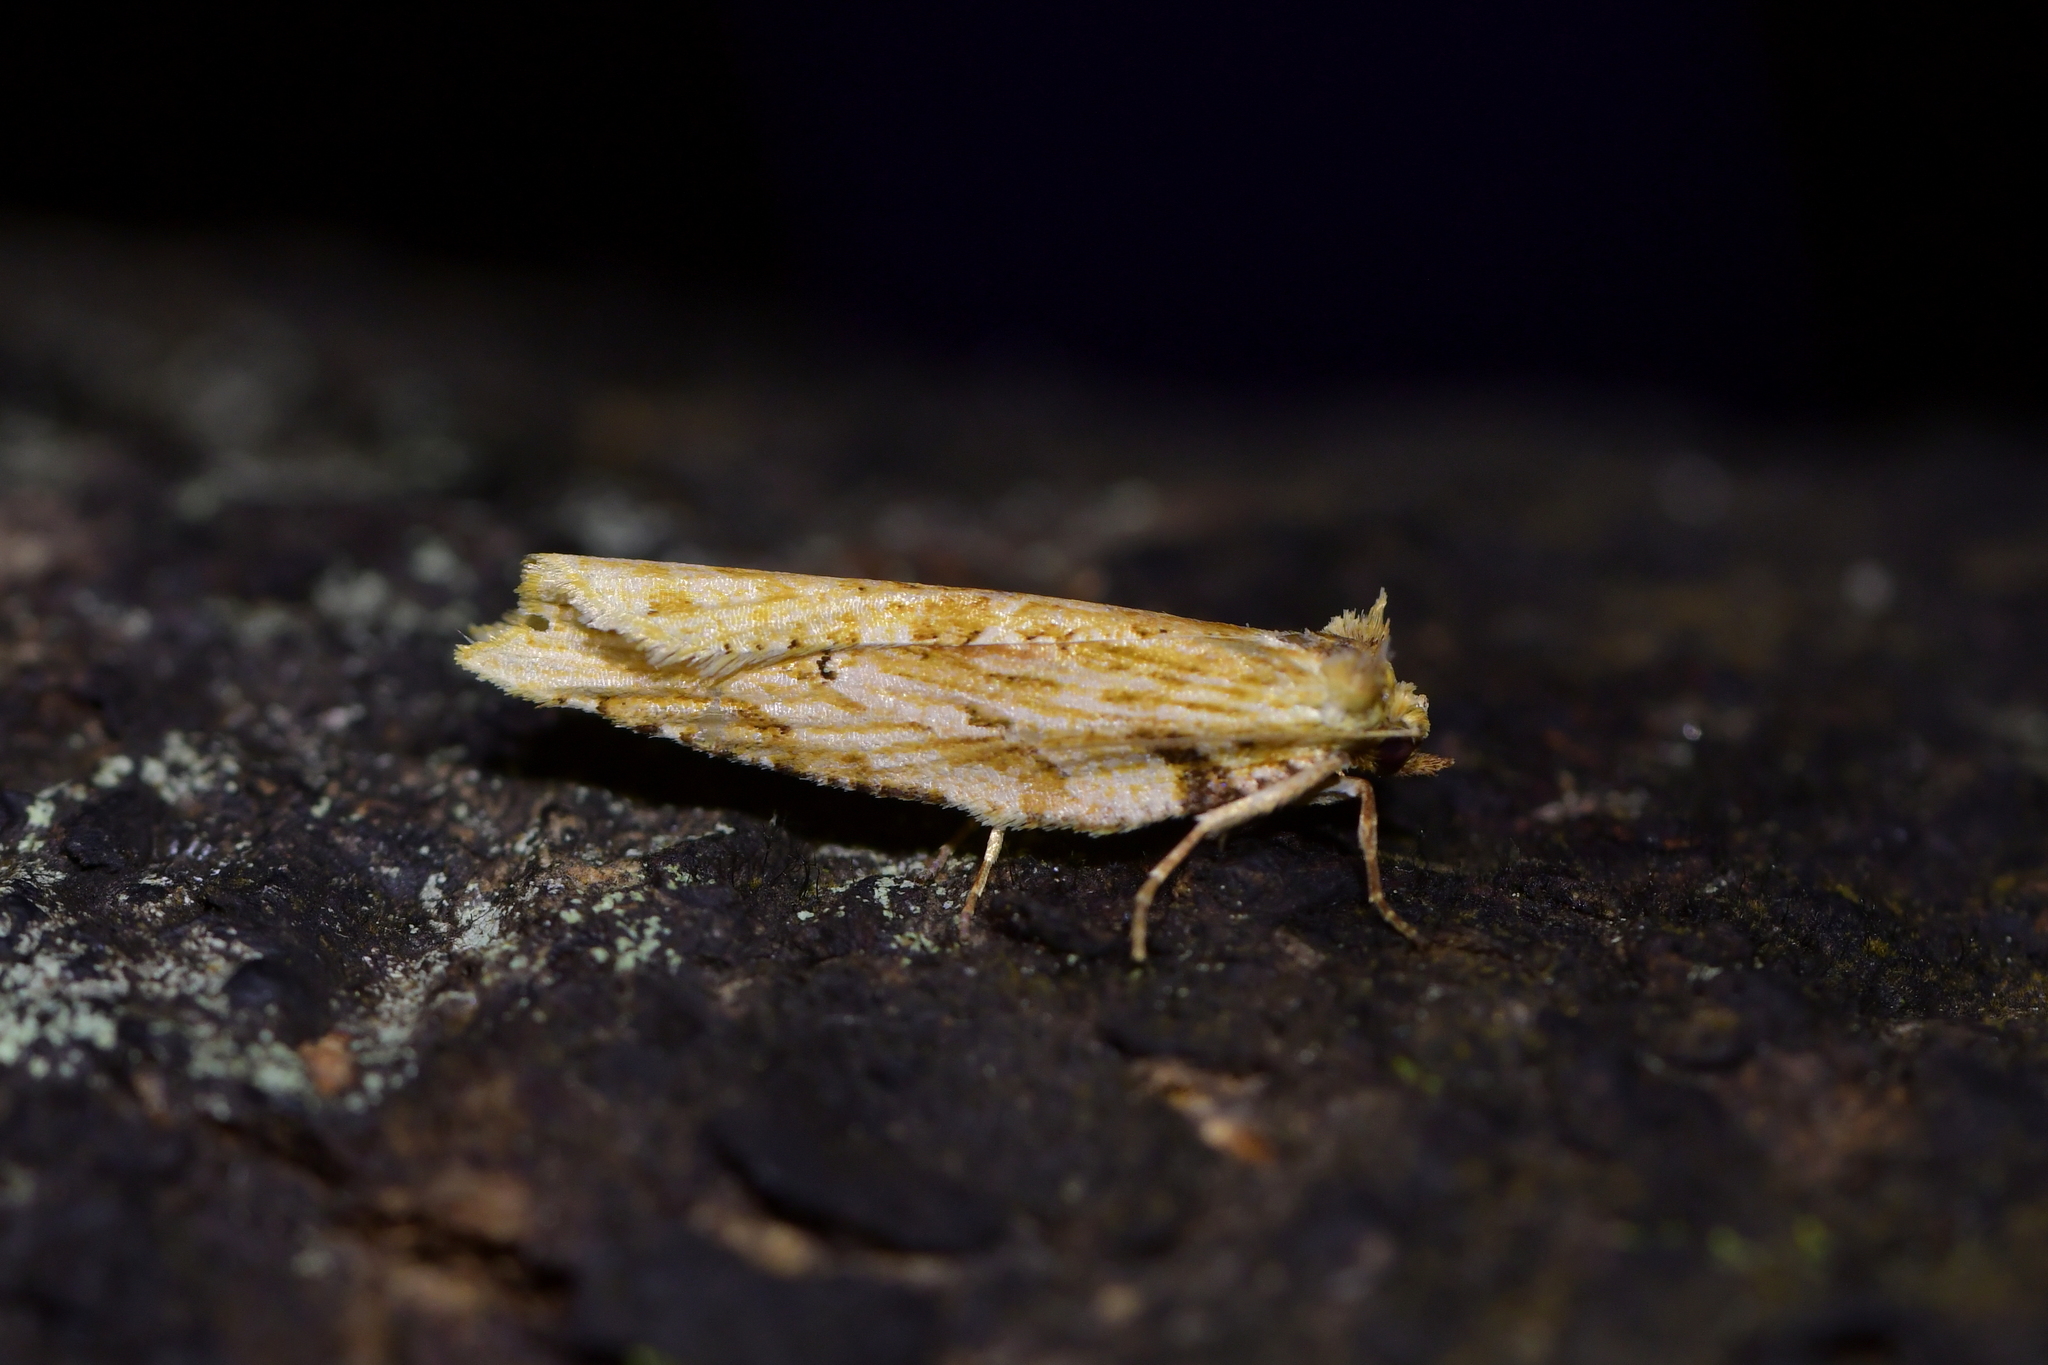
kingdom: Animalia
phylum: Arthropoda
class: Insecta
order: Lepidoptera
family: Tortricidae
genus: Epalxiphora
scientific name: Epalxiphora axenana
